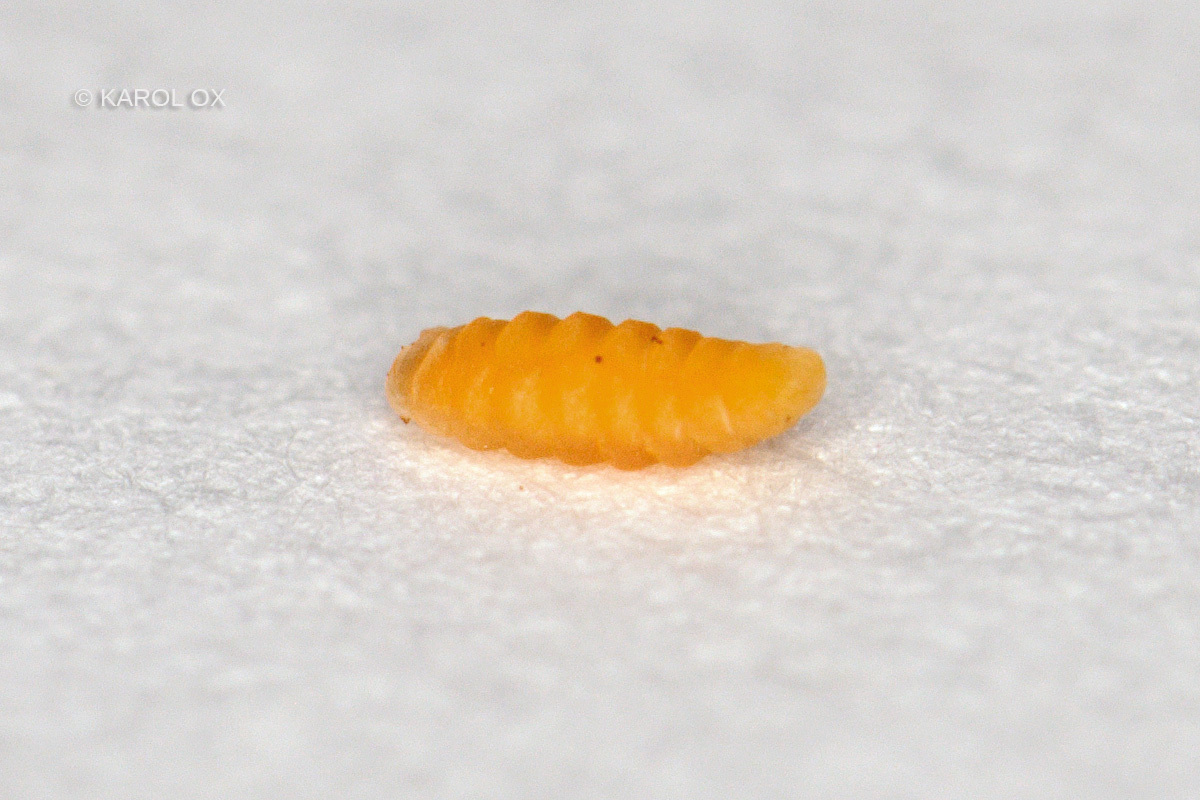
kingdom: Animalia
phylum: Arthropoda
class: Insecta
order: Diptera
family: Cecidomyiidae
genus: Lasioptera
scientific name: Lasioptera rubi
